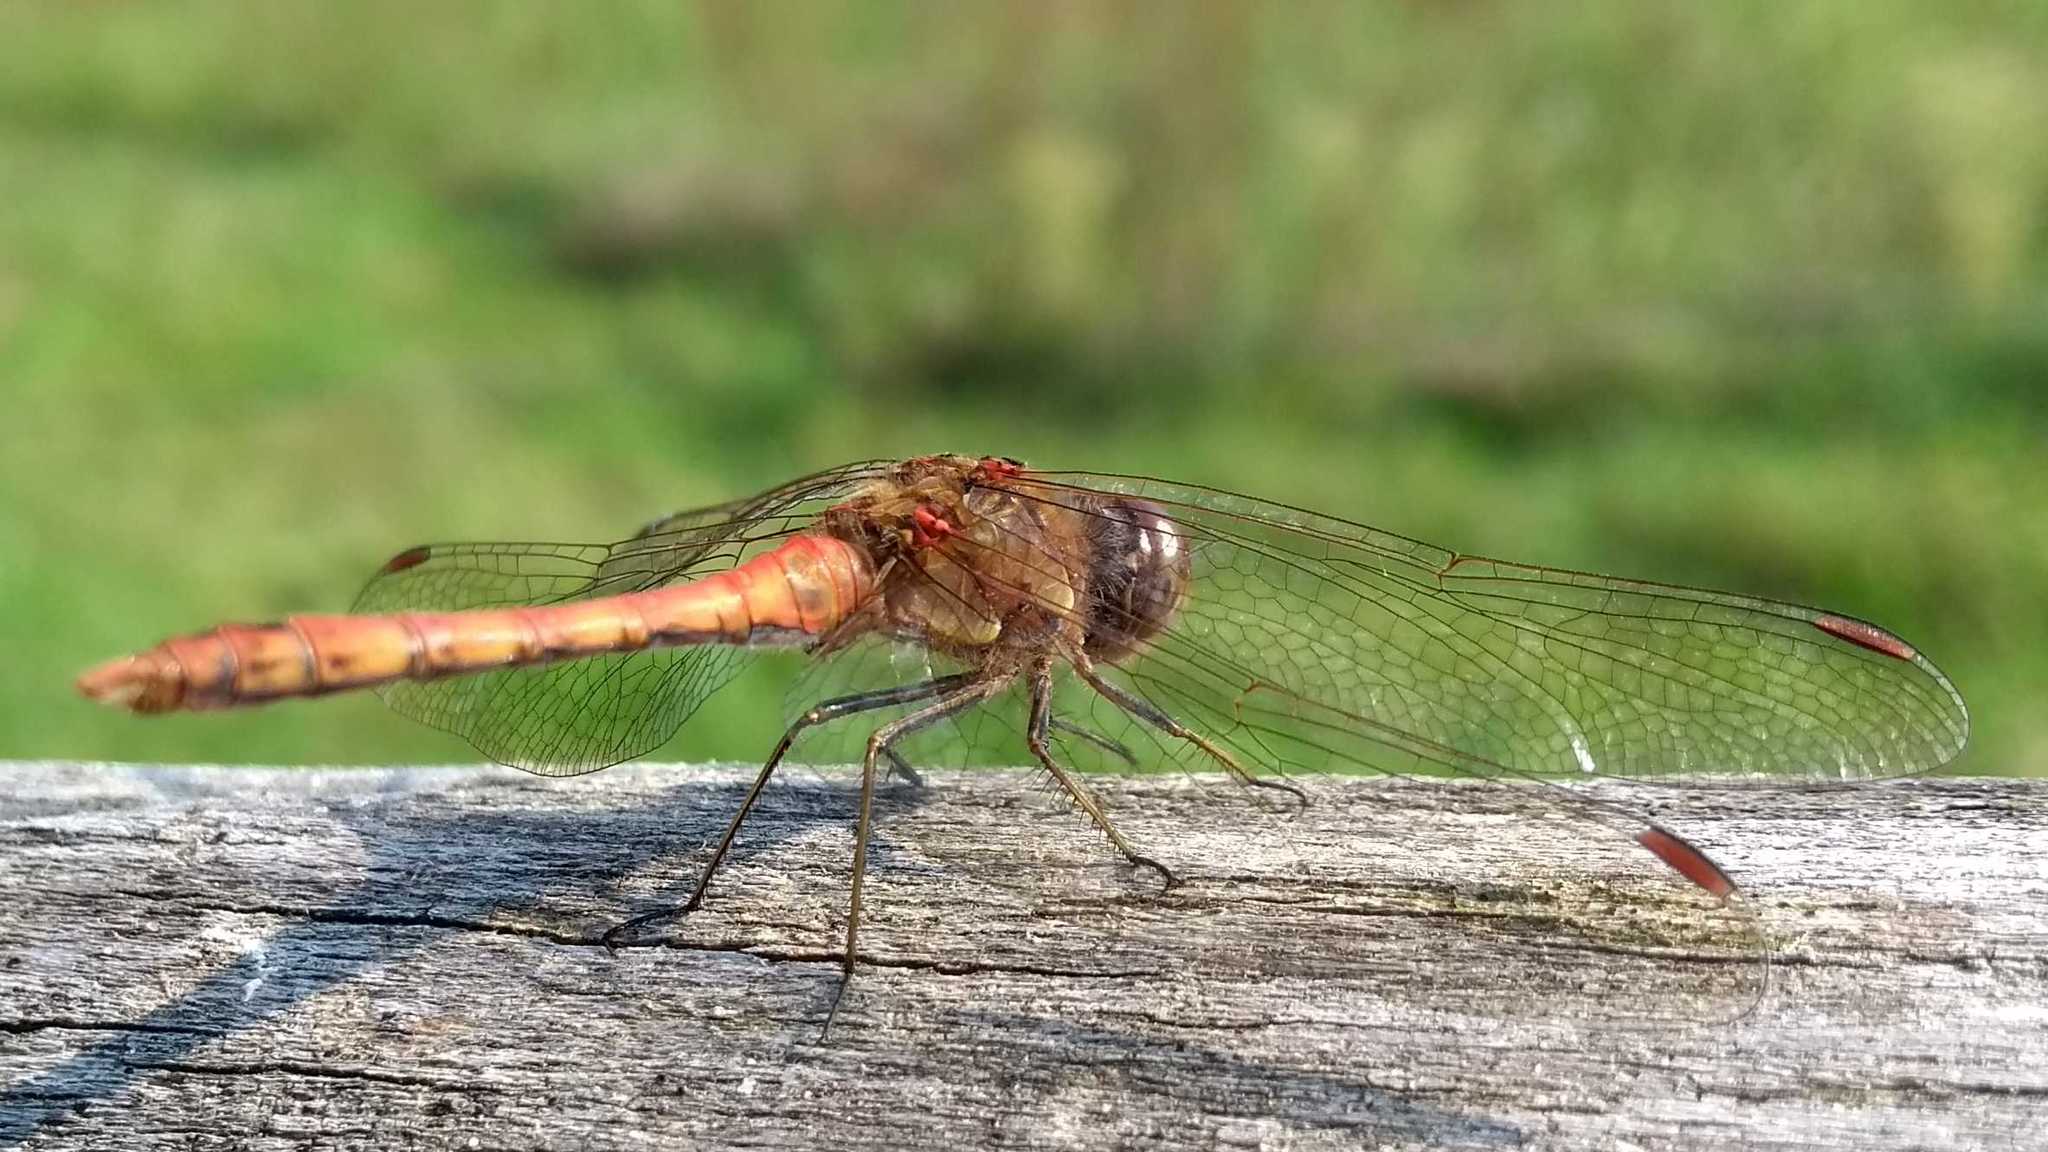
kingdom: Animalia
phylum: Arthropoda
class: Insecta
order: Odonata
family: Libellulidae
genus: Sympetrum
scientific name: Sympetrum striolatum
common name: Common darter
